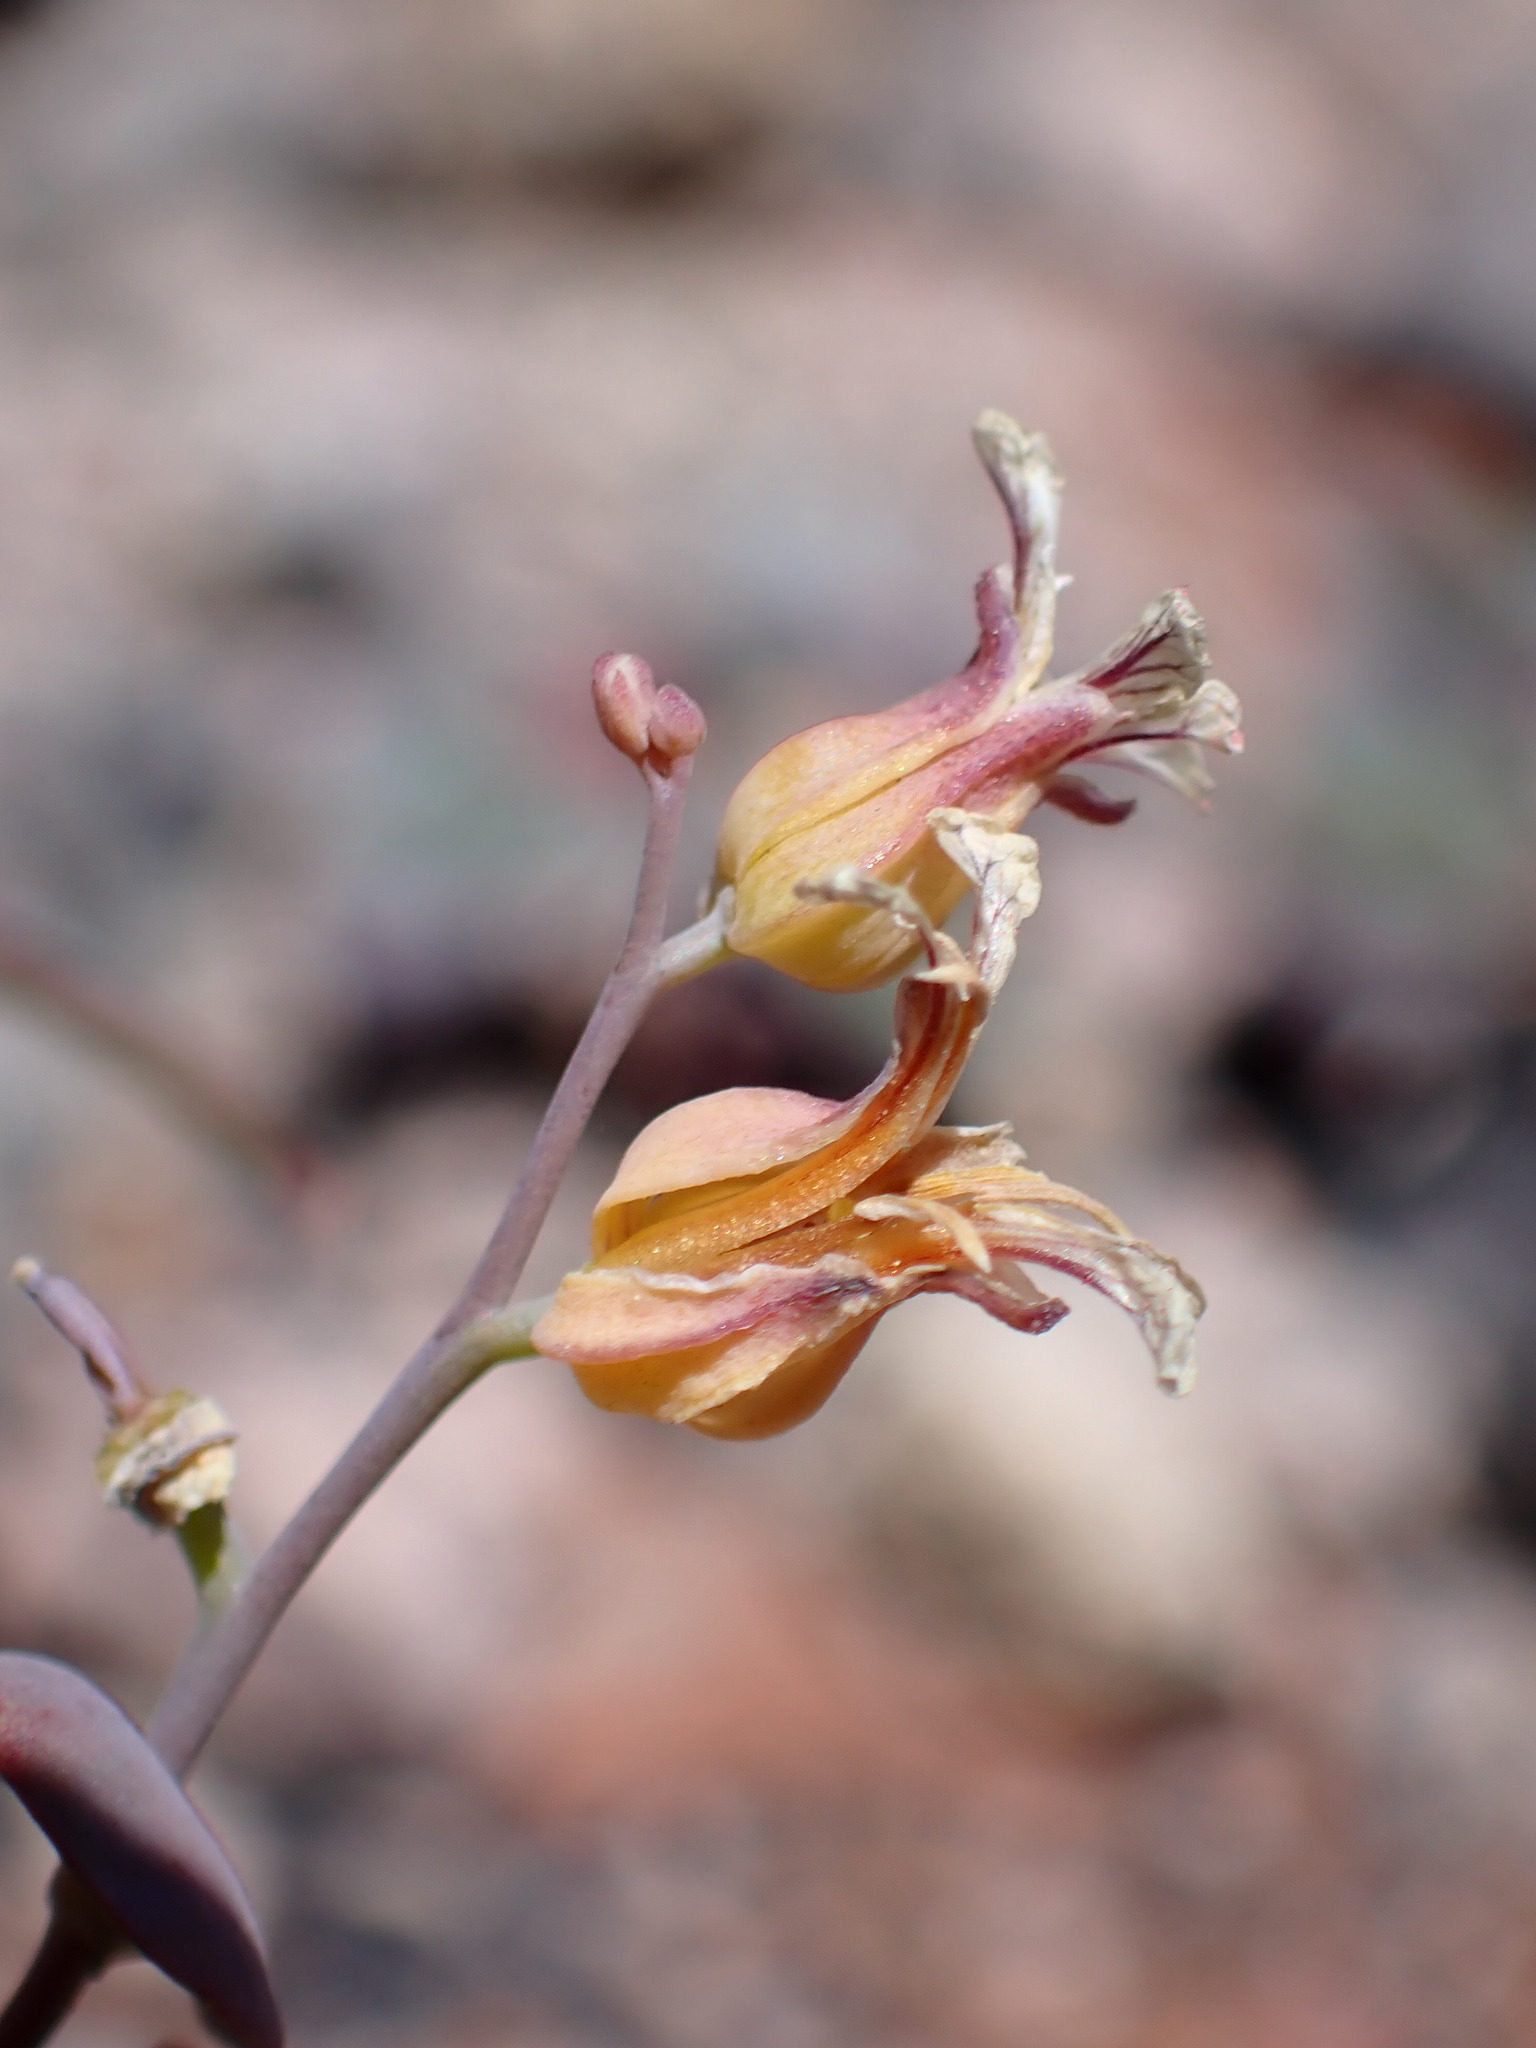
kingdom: Plantae
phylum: Tracheophyta
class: Magnoliopsida
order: Brassicales
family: Brassicaceae
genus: Streptanthus
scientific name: Streptanthus tortuosus
